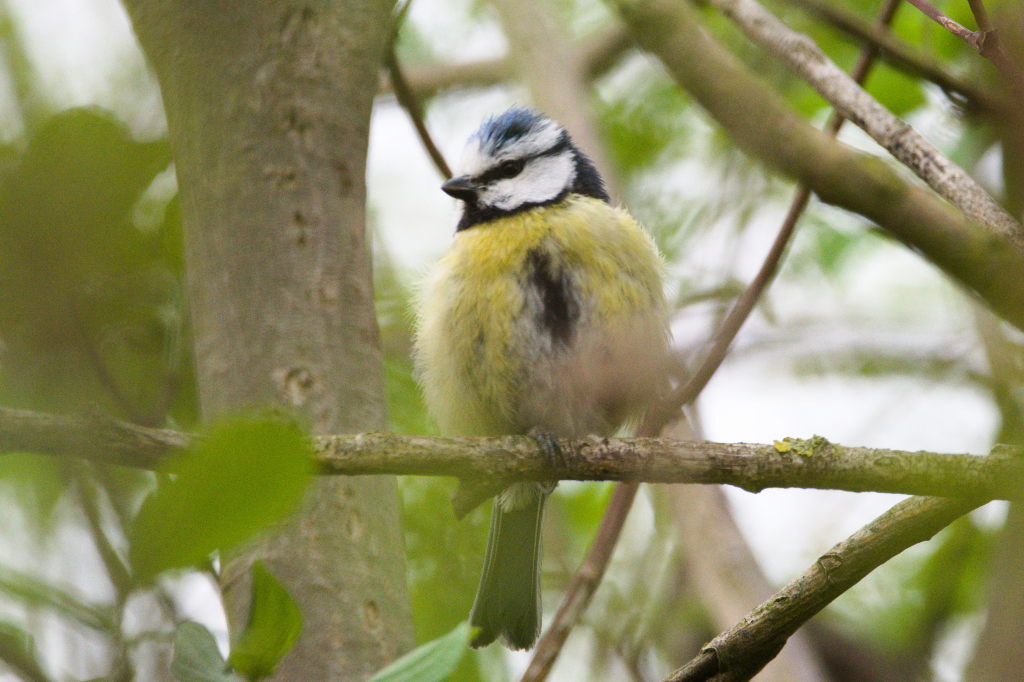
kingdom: Animalia
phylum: Chordata
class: Aves
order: Passeriformes
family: Paridae
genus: Cyanistes
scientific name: Cyanistes caeruleus
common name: Eurasian blue tit
